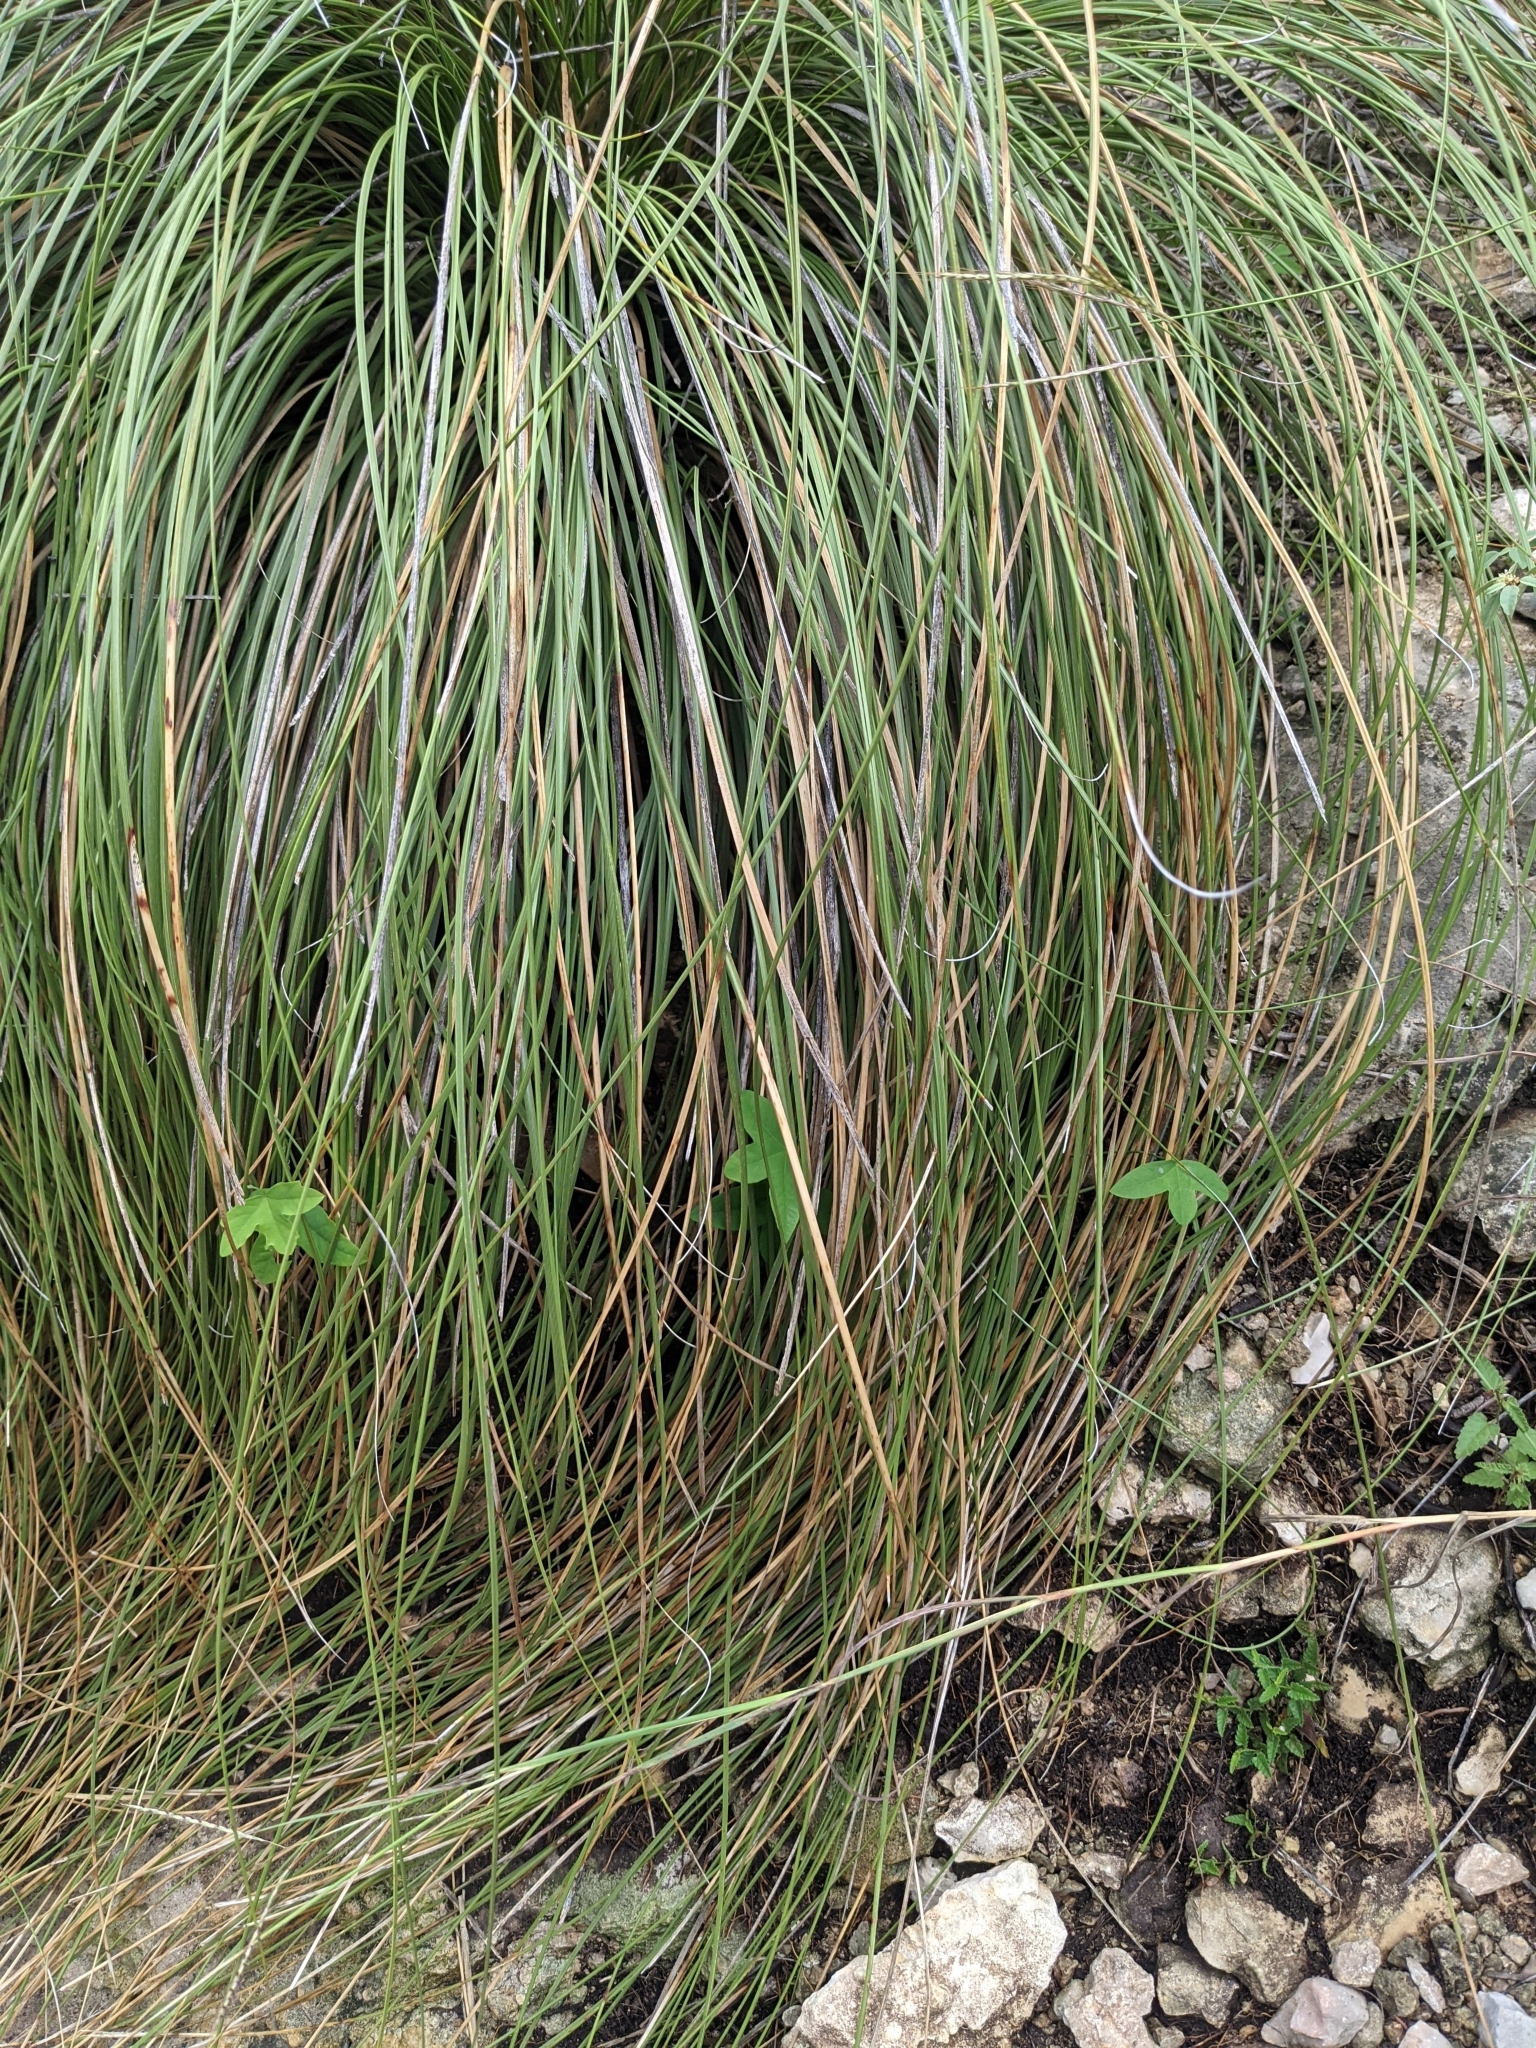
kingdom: Plantae
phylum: Tracheophyta
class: Magnoliopsida
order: Malpighiales
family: Passifloraceae
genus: Passiflora
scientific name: Passiflora tenuiloba
